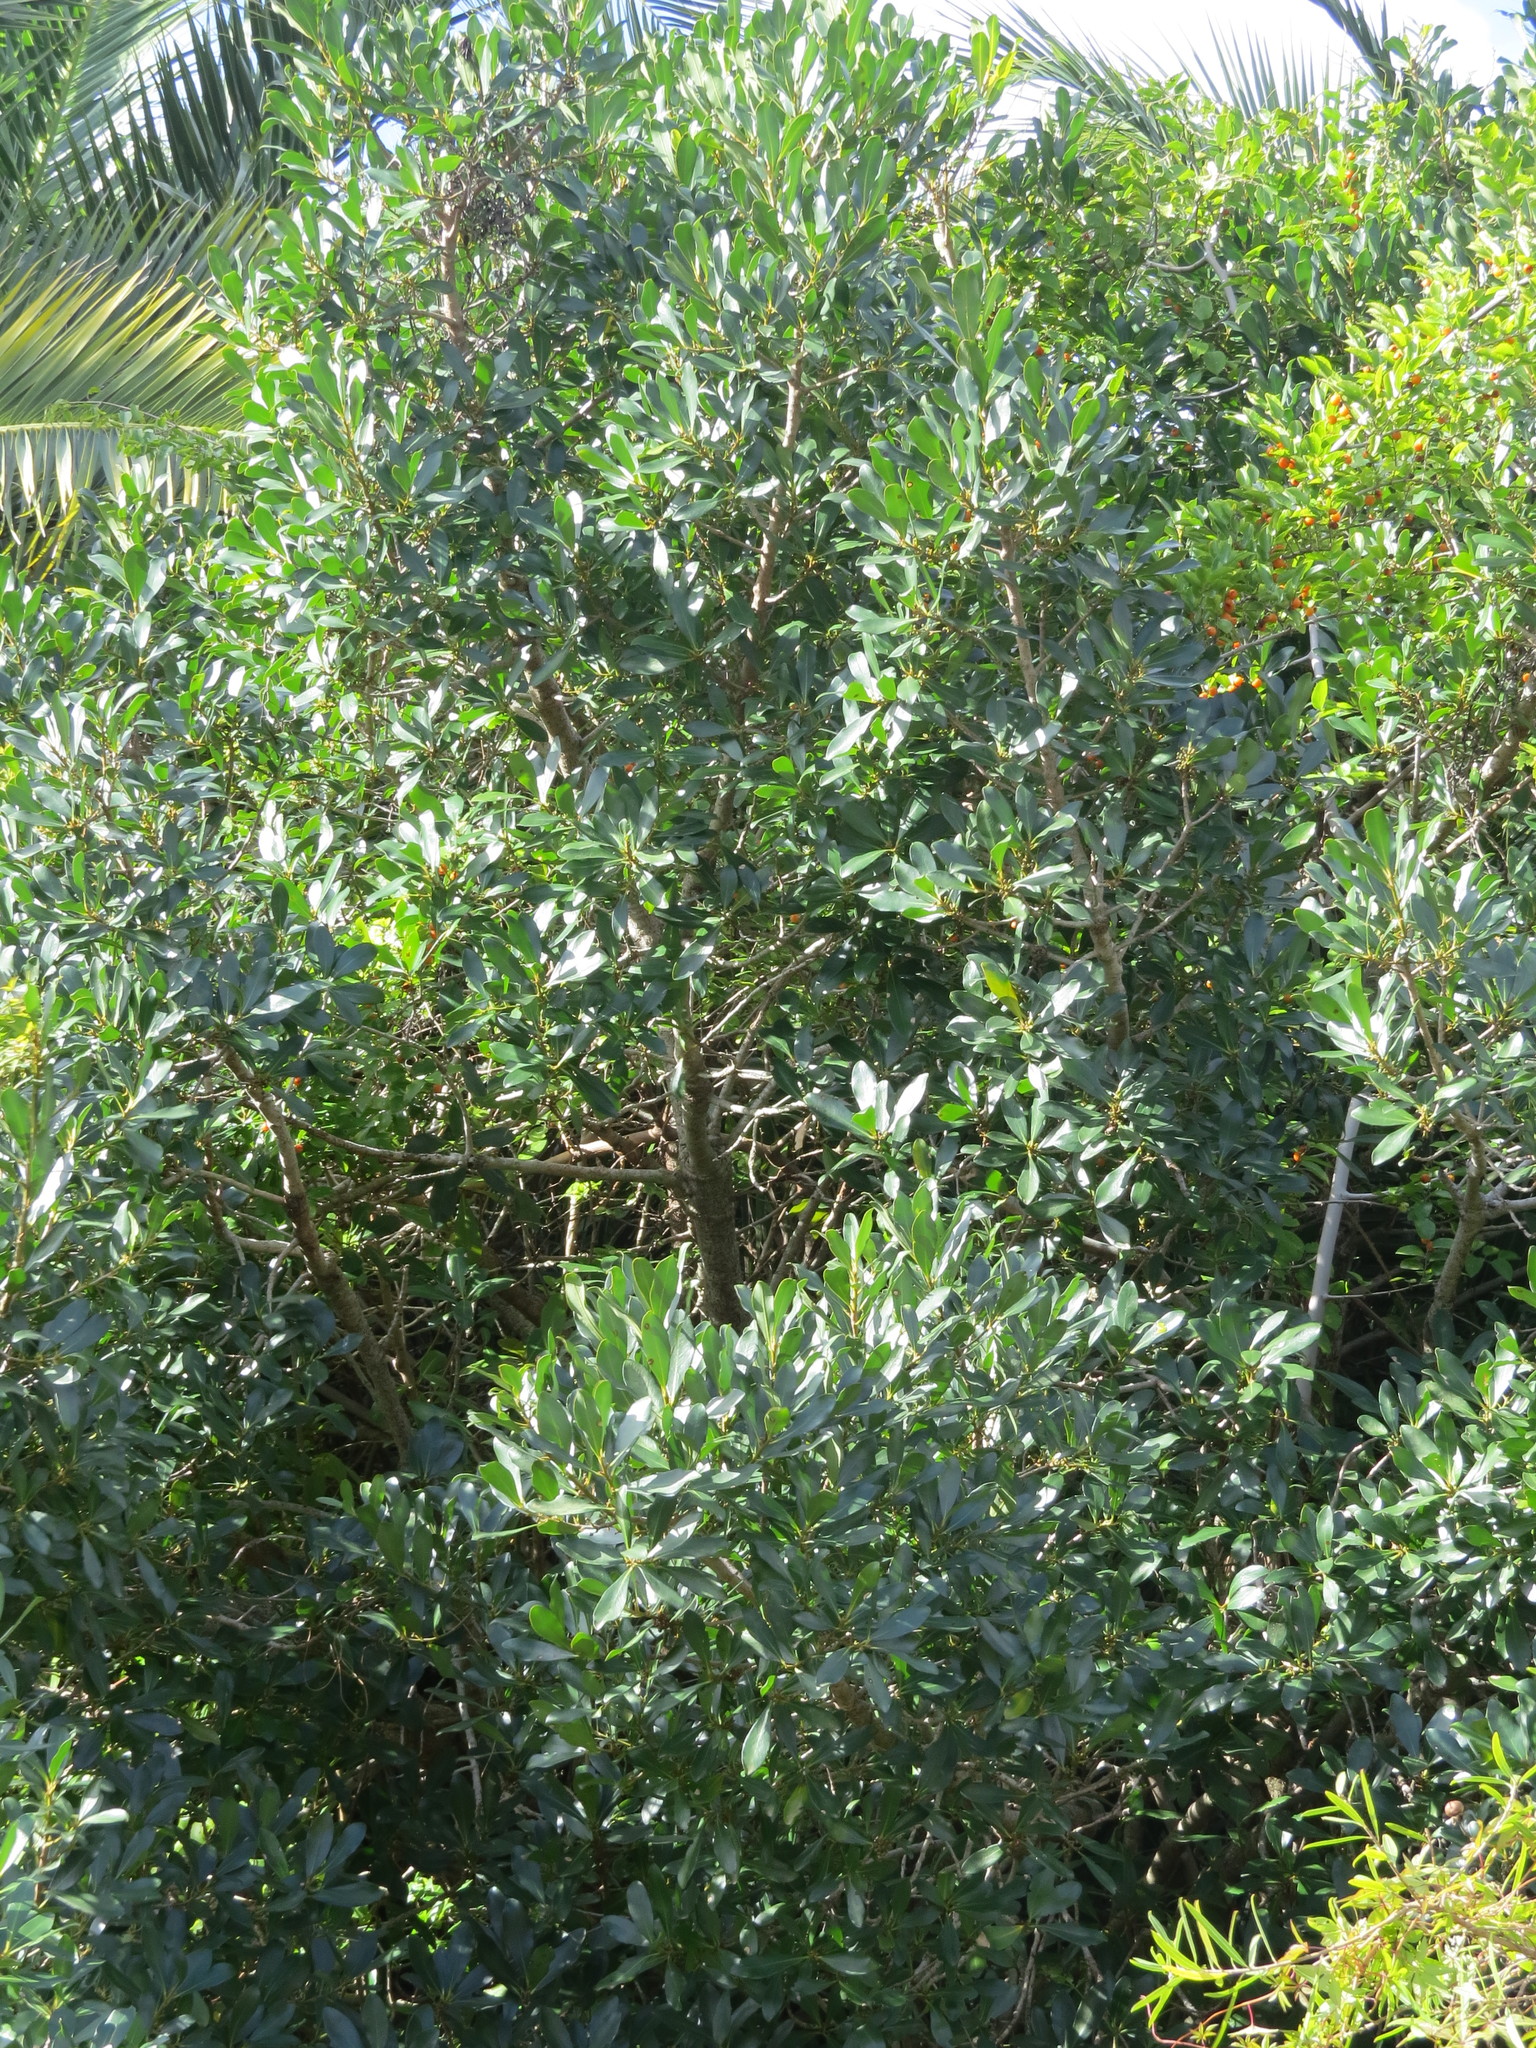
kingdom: Plantae
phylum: Tracheophyta
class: Magnoliopsida
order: Ericales
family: Primulaceae
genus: Myrsine
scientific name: Myrsine laetevirens
